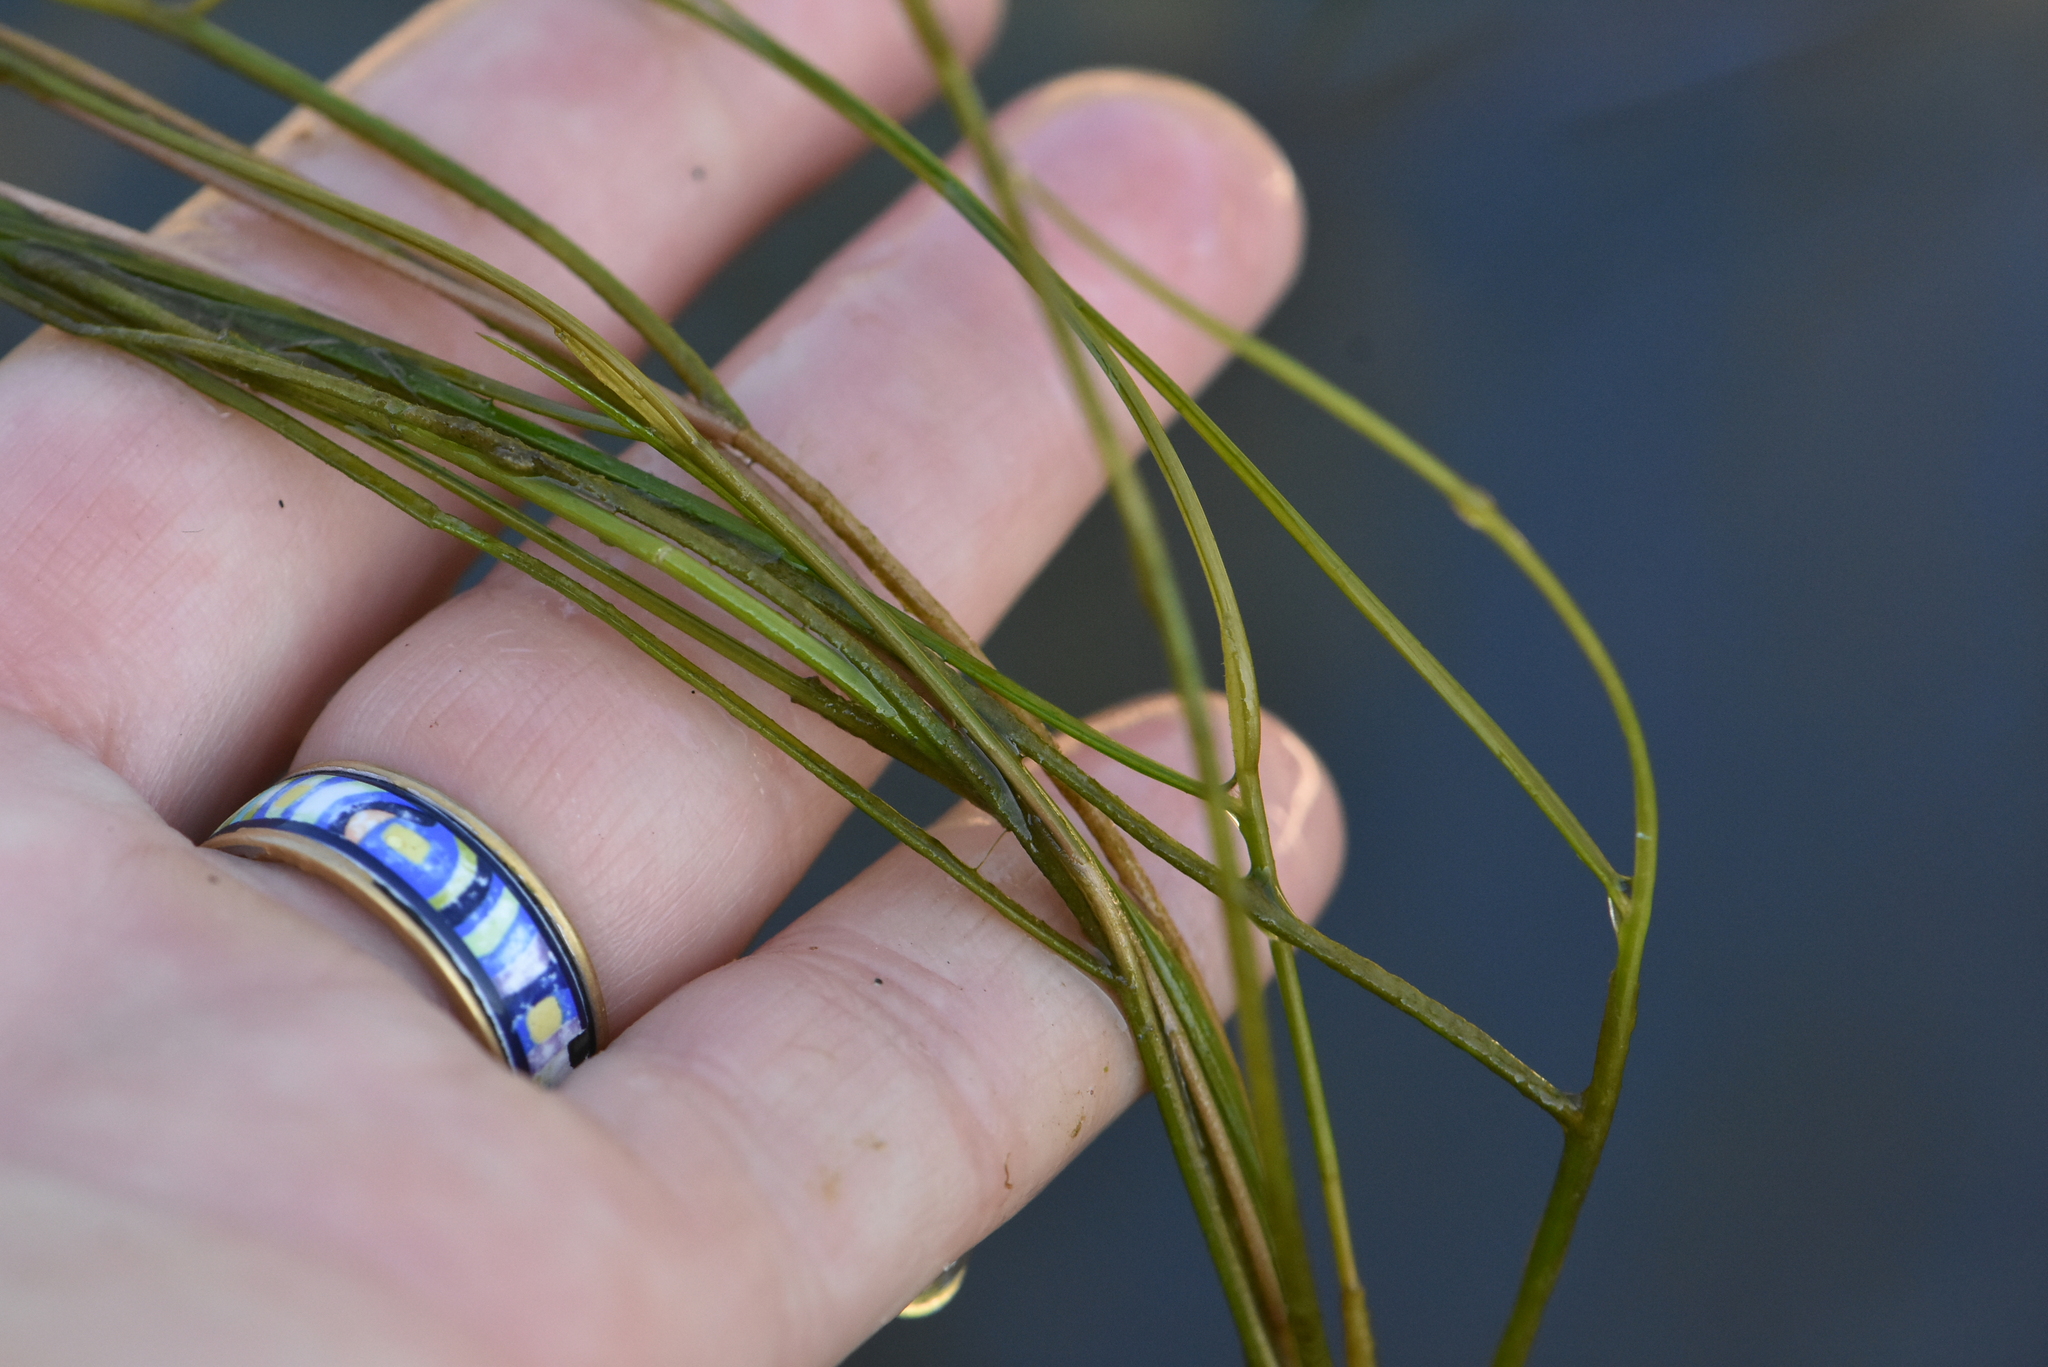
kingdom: Plantae
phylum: Tracheophyta
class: Liliopsida
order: Alismatales
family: Potamogetonaceae
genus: Stuckenia
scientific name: Stuckenia pectinata
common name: Sago pondweed
